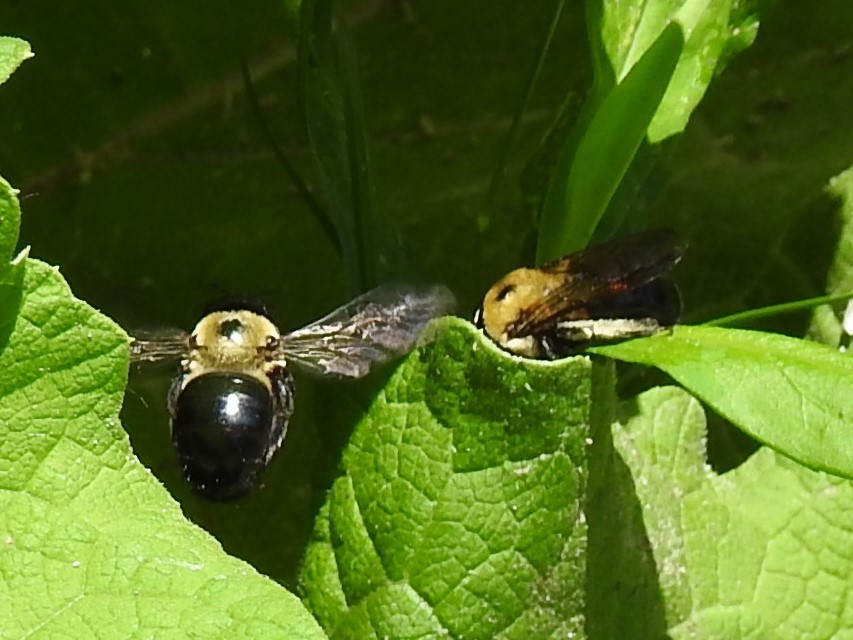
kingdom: Animalia
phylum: Arthropoda
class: Insecta
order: Hymenoptera
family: Apidae
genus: Xylocopa
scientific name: Xylocopa virginica
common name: Carpenter bee
